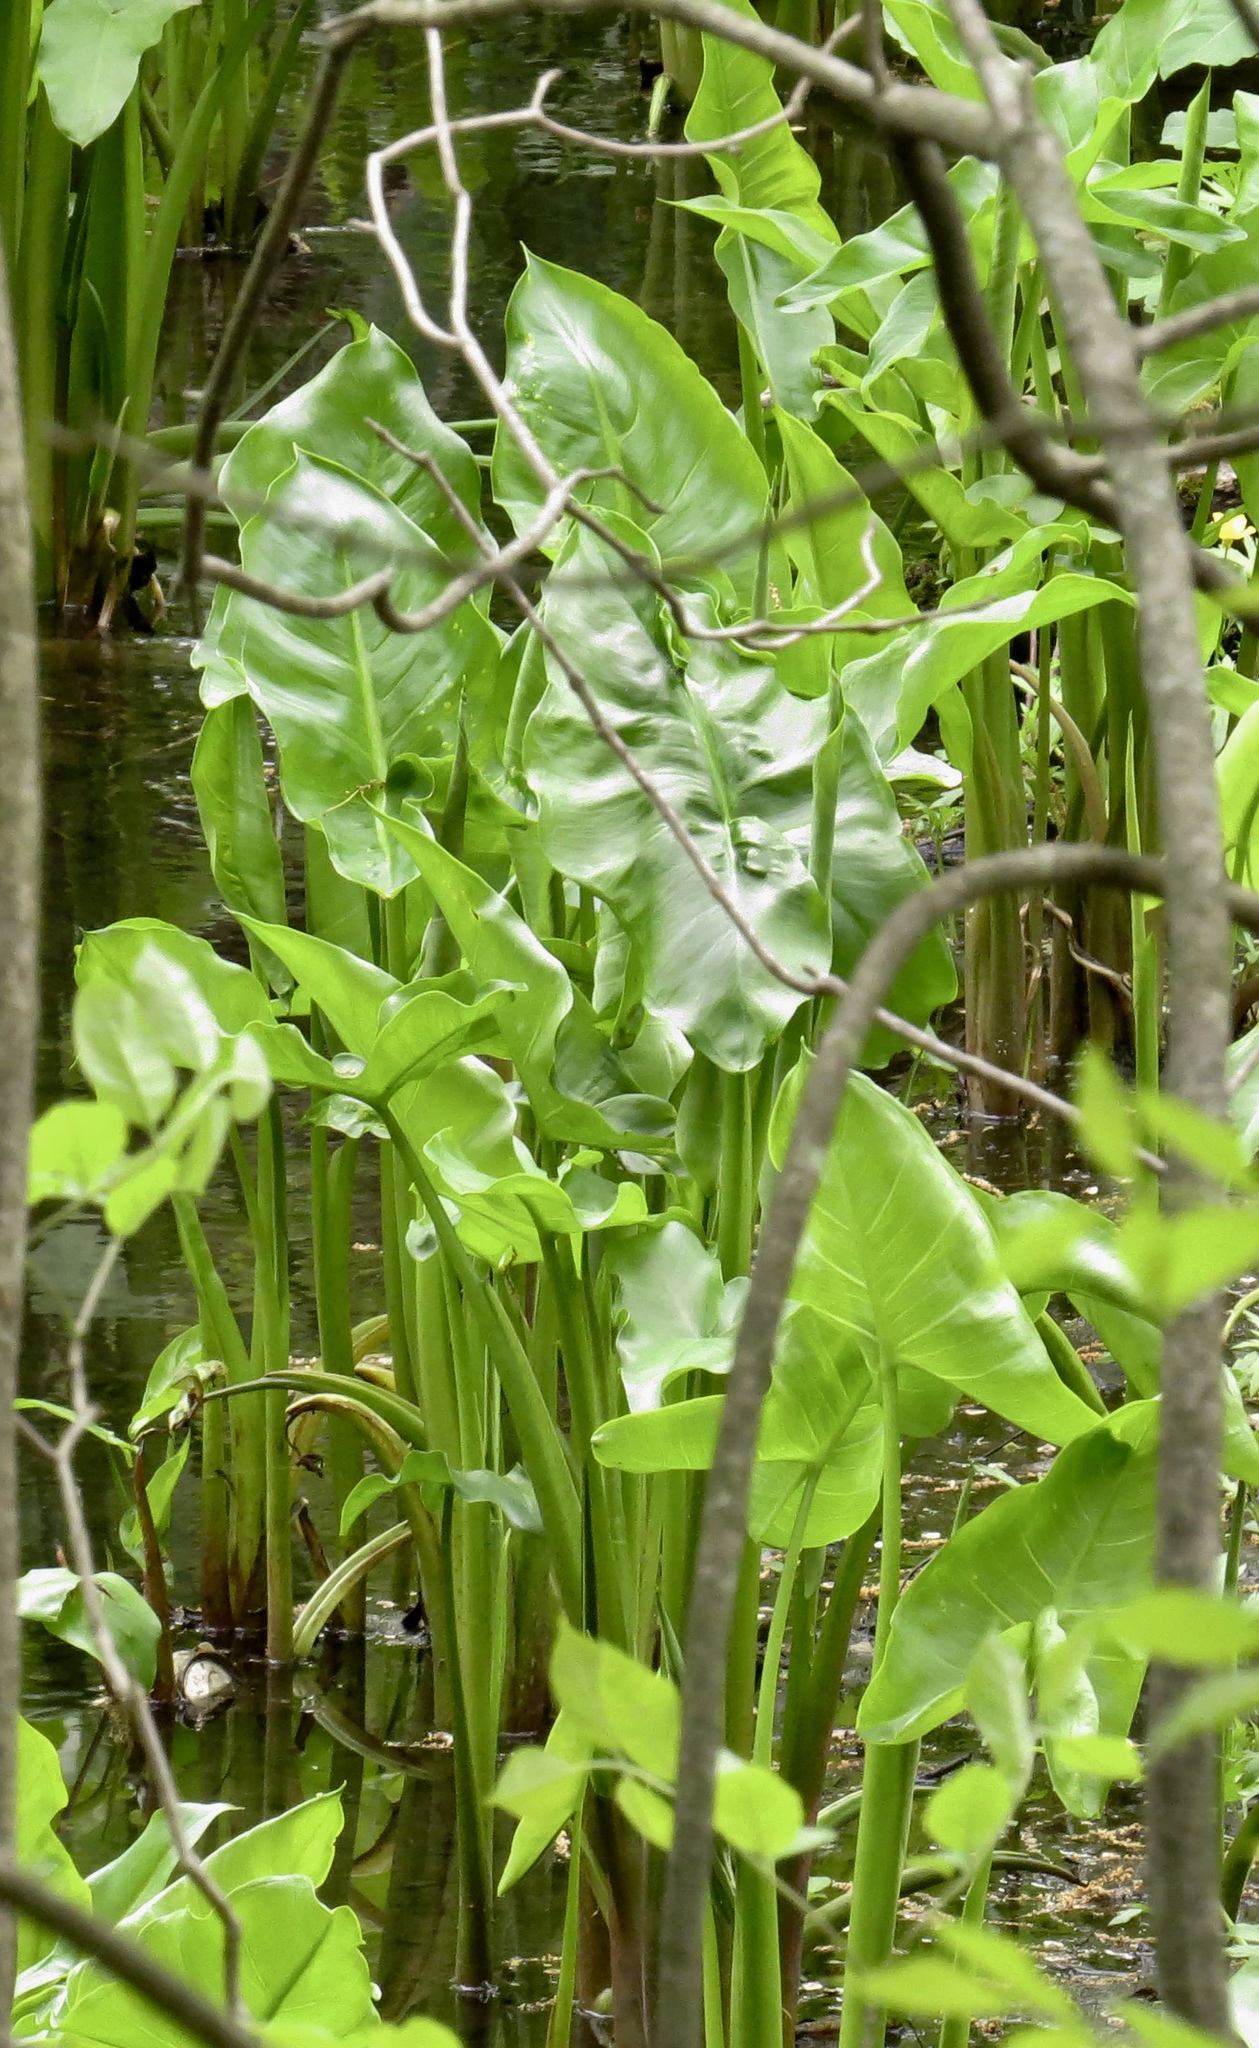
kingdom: Plantae
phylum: Tracheophyta
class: Liliopsida
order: Alismatales
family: Araceae
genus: Peltandra
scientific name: Peltandra virginica
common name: Arrow arum
